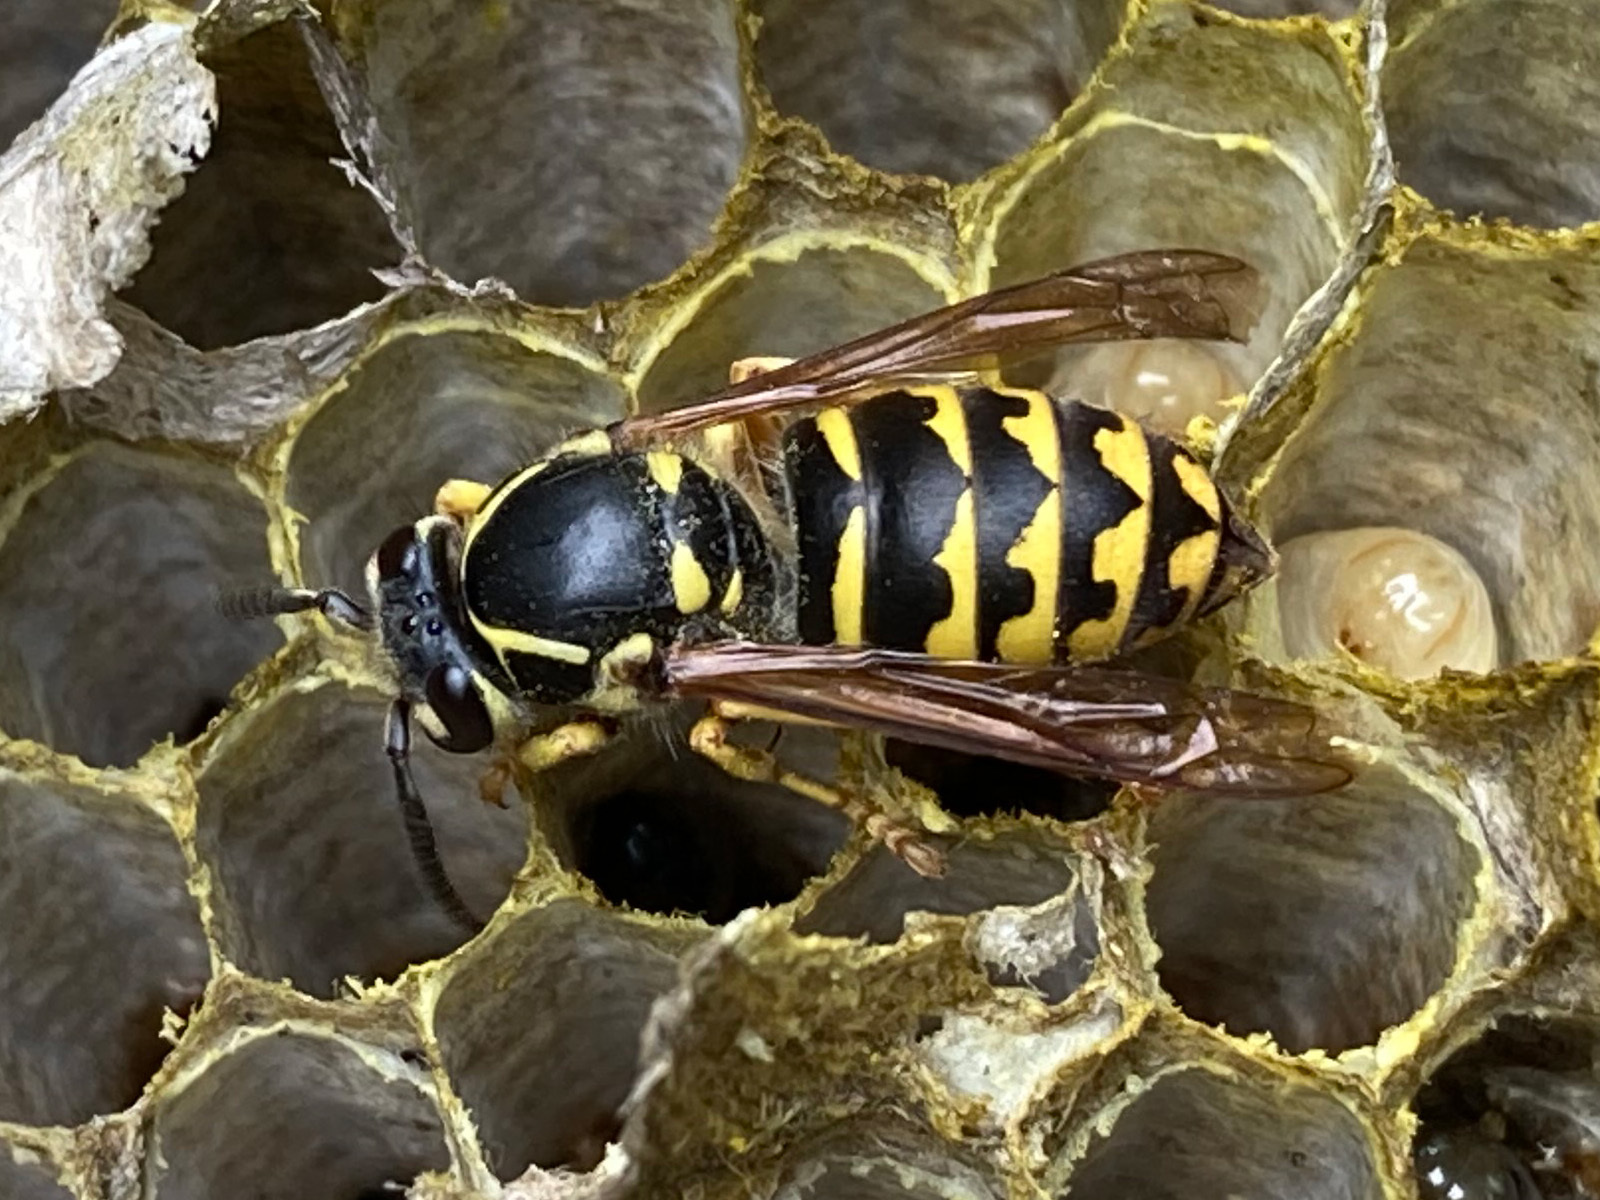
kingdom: Animalia
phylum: Arthropoda
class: Insecta
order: Hymenoptera
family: Vespidae
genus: Dolichovespula
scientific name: Dolichovespula arenaria
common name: Aerial yellowjacket
